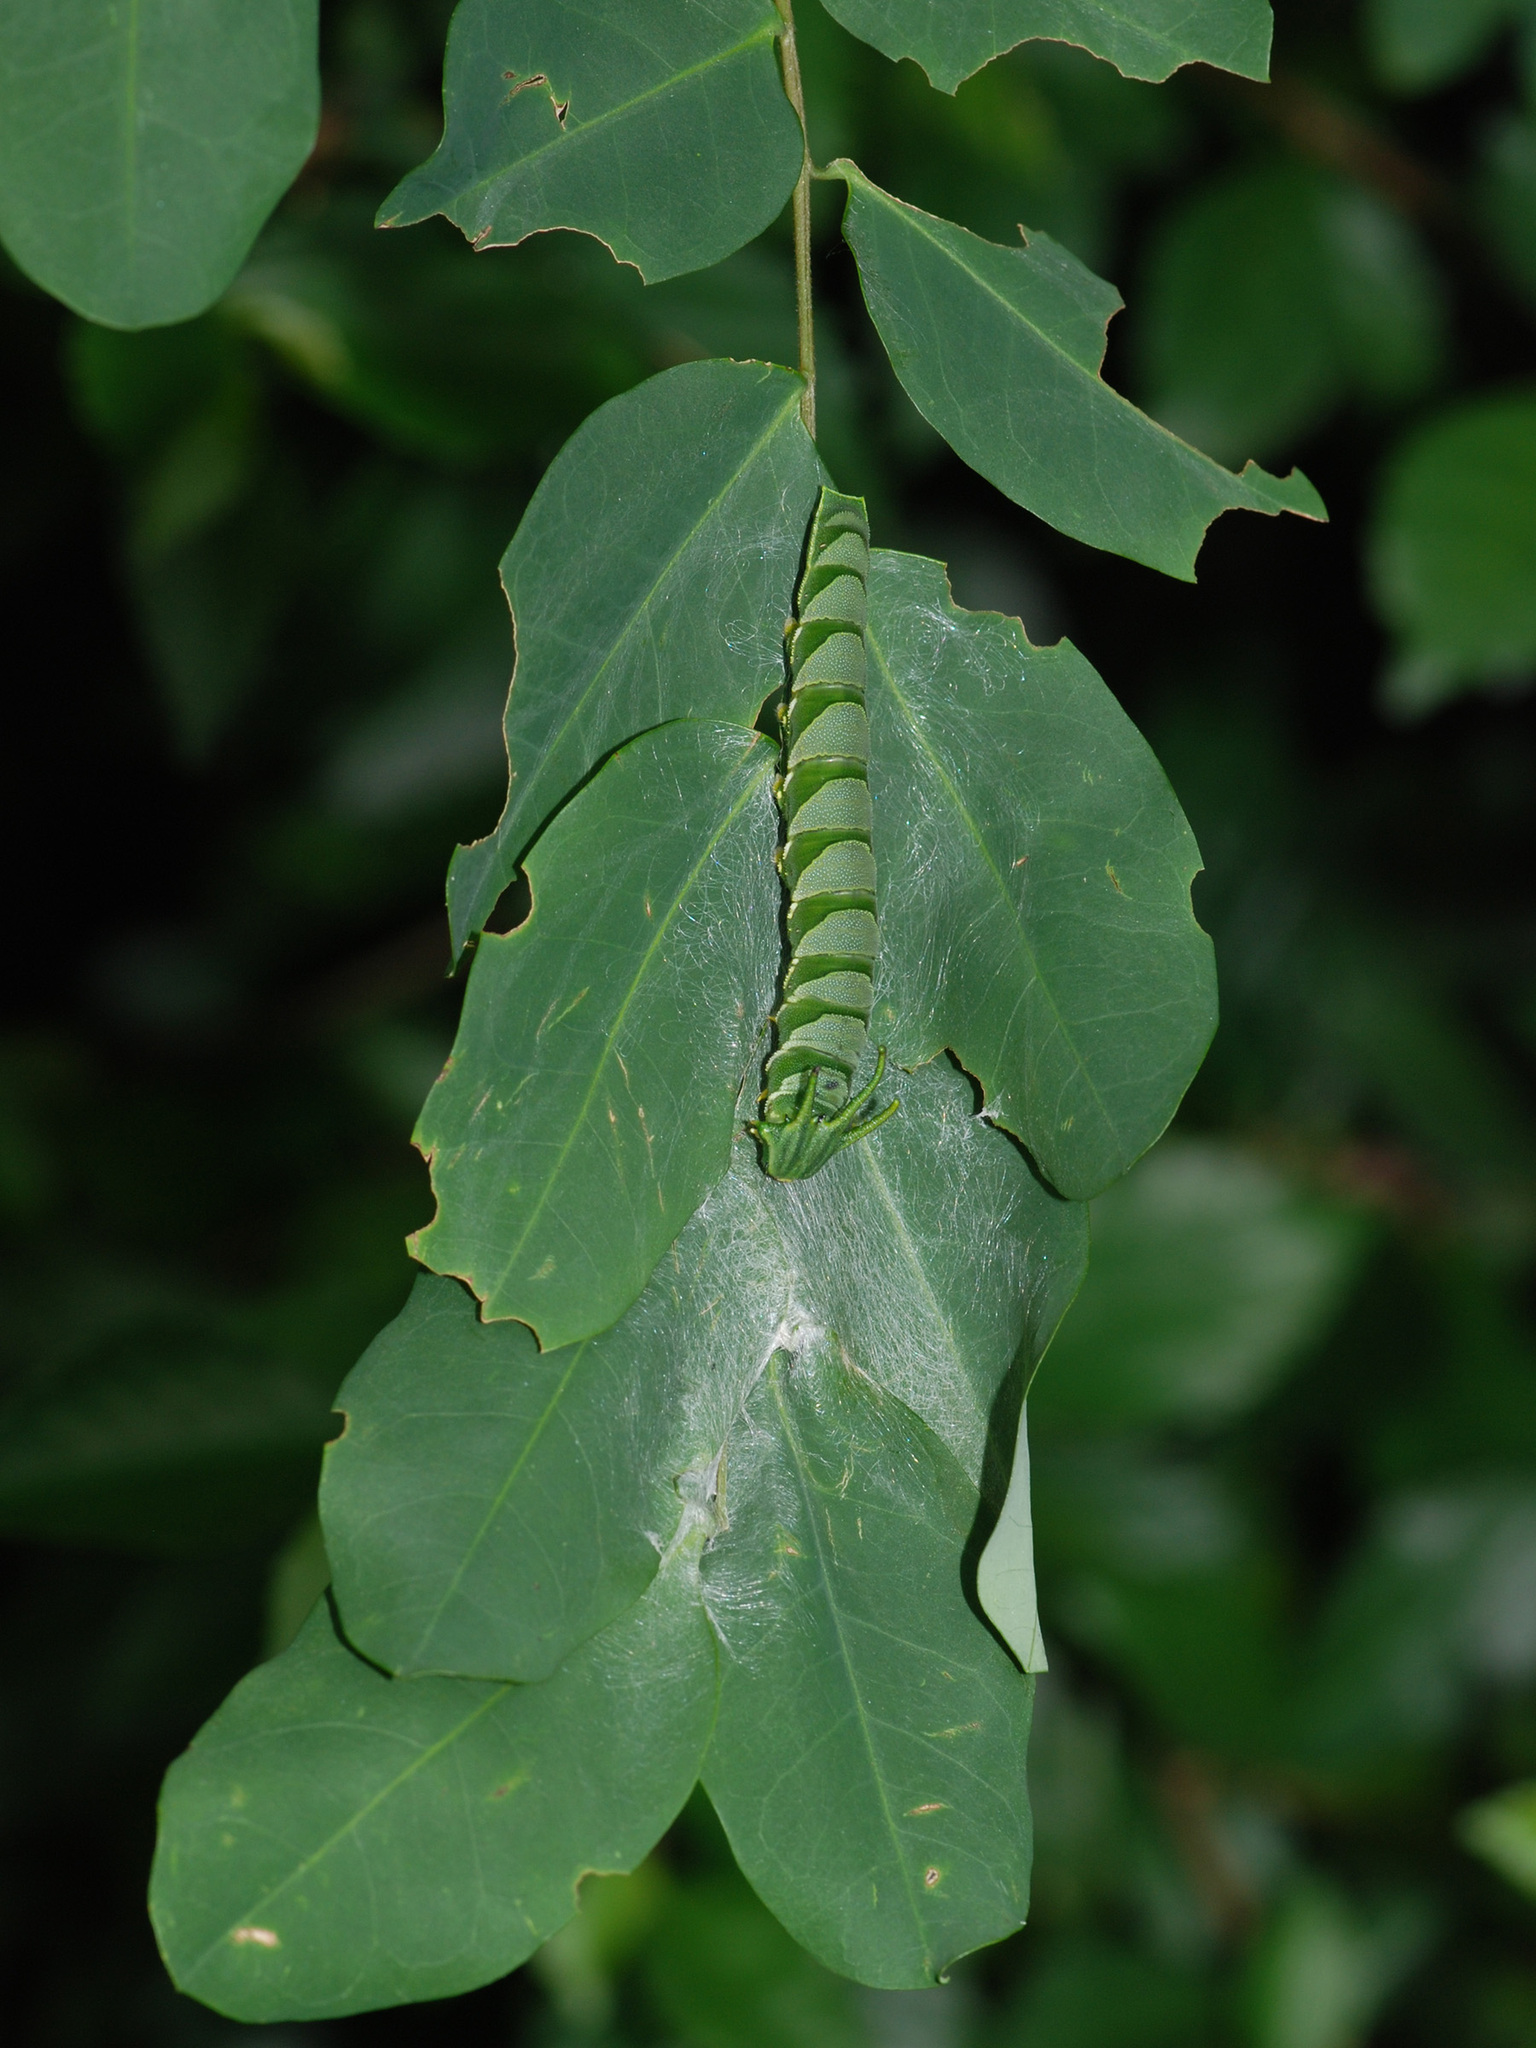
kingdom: Animalia
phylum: Arthropoda
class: Insecta
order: Lepidoptera
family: Nymphalidae
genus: Polyura
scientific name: Polyura hebe
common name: Plain nawab
